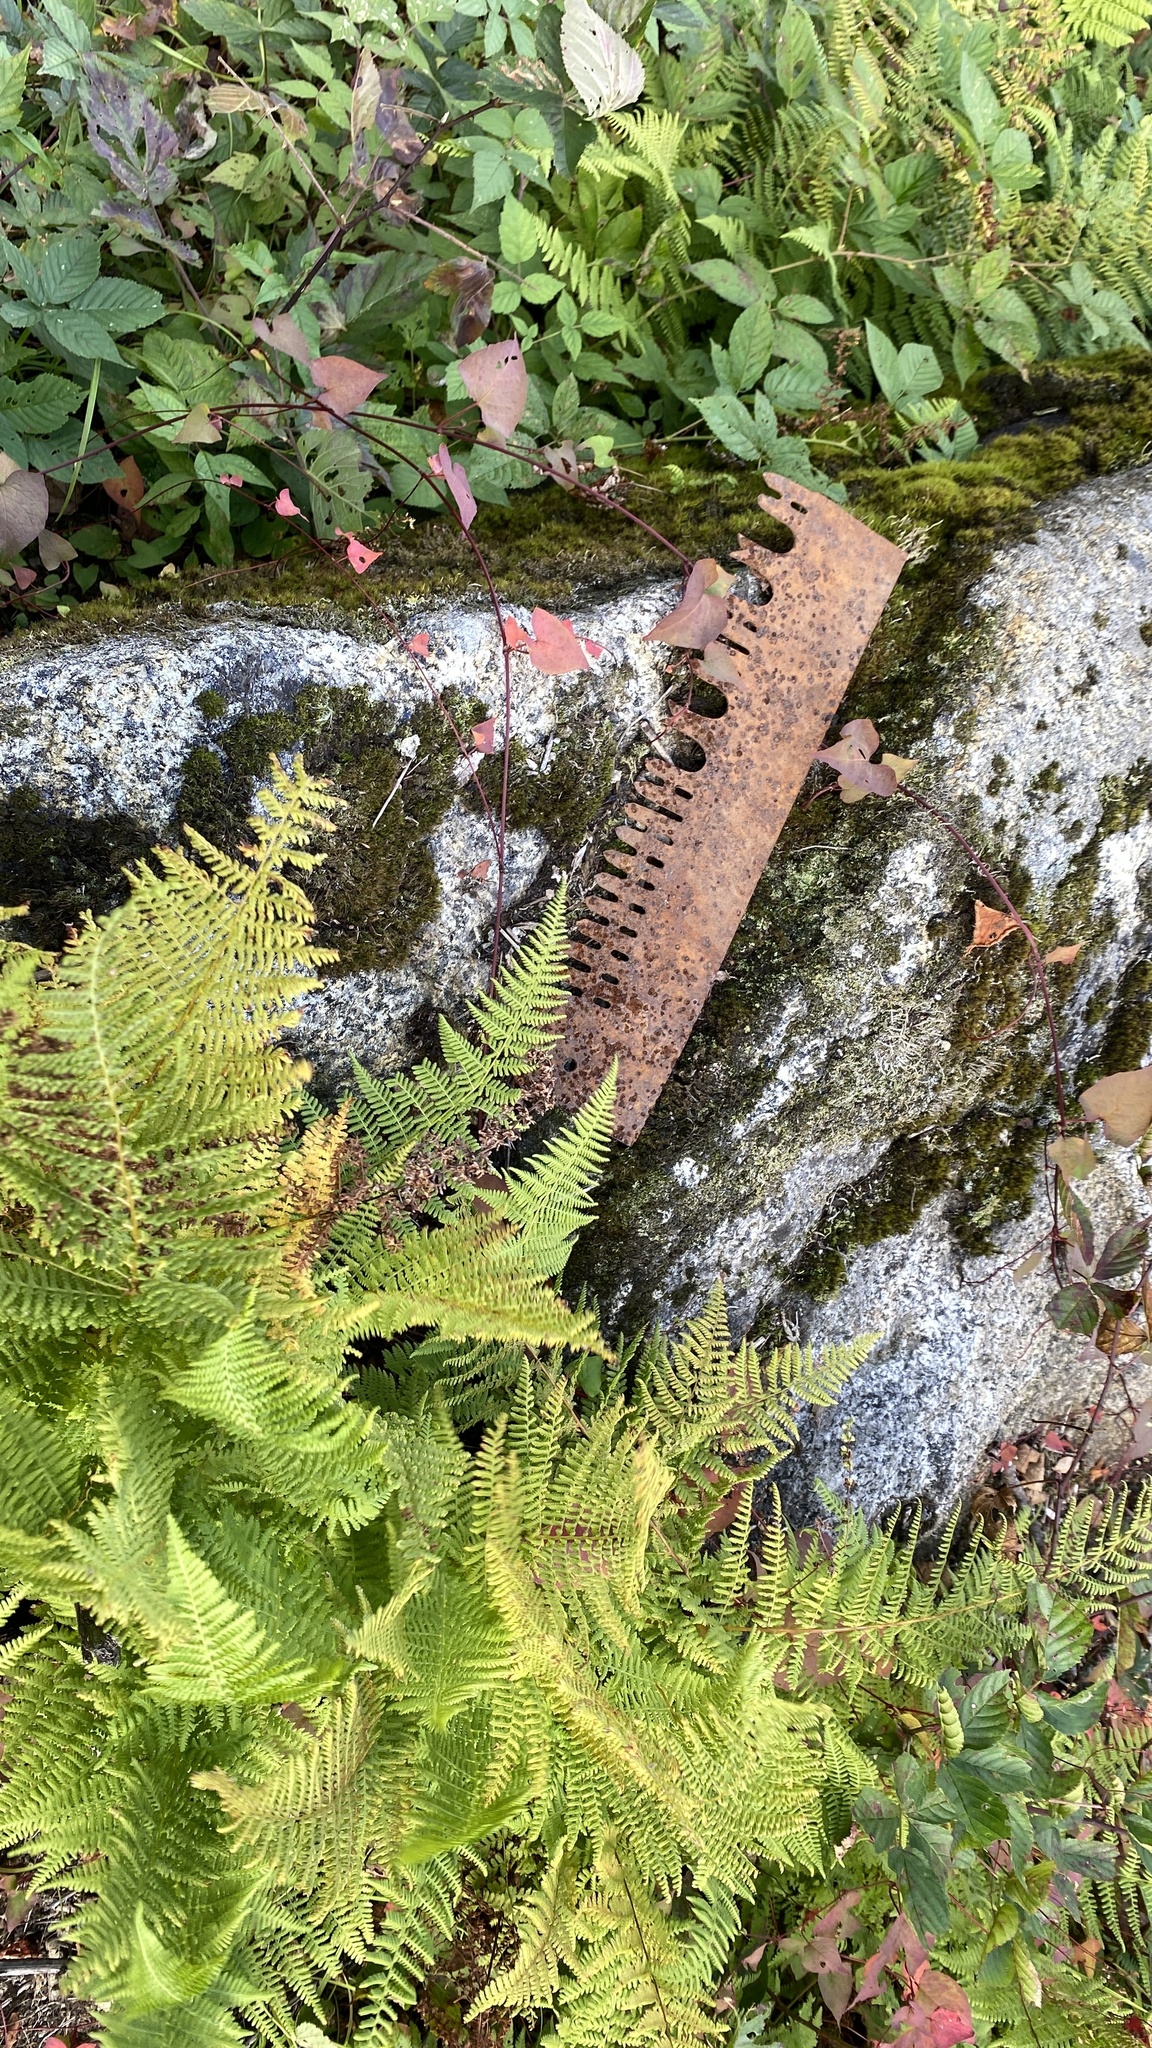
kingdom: Plantae
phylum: Tracheophyta
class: Polypodiopsida
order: Polypodiales
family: Dennstaedtiaceae
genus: Sitobolium
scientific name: Sitobolium punctilobum
